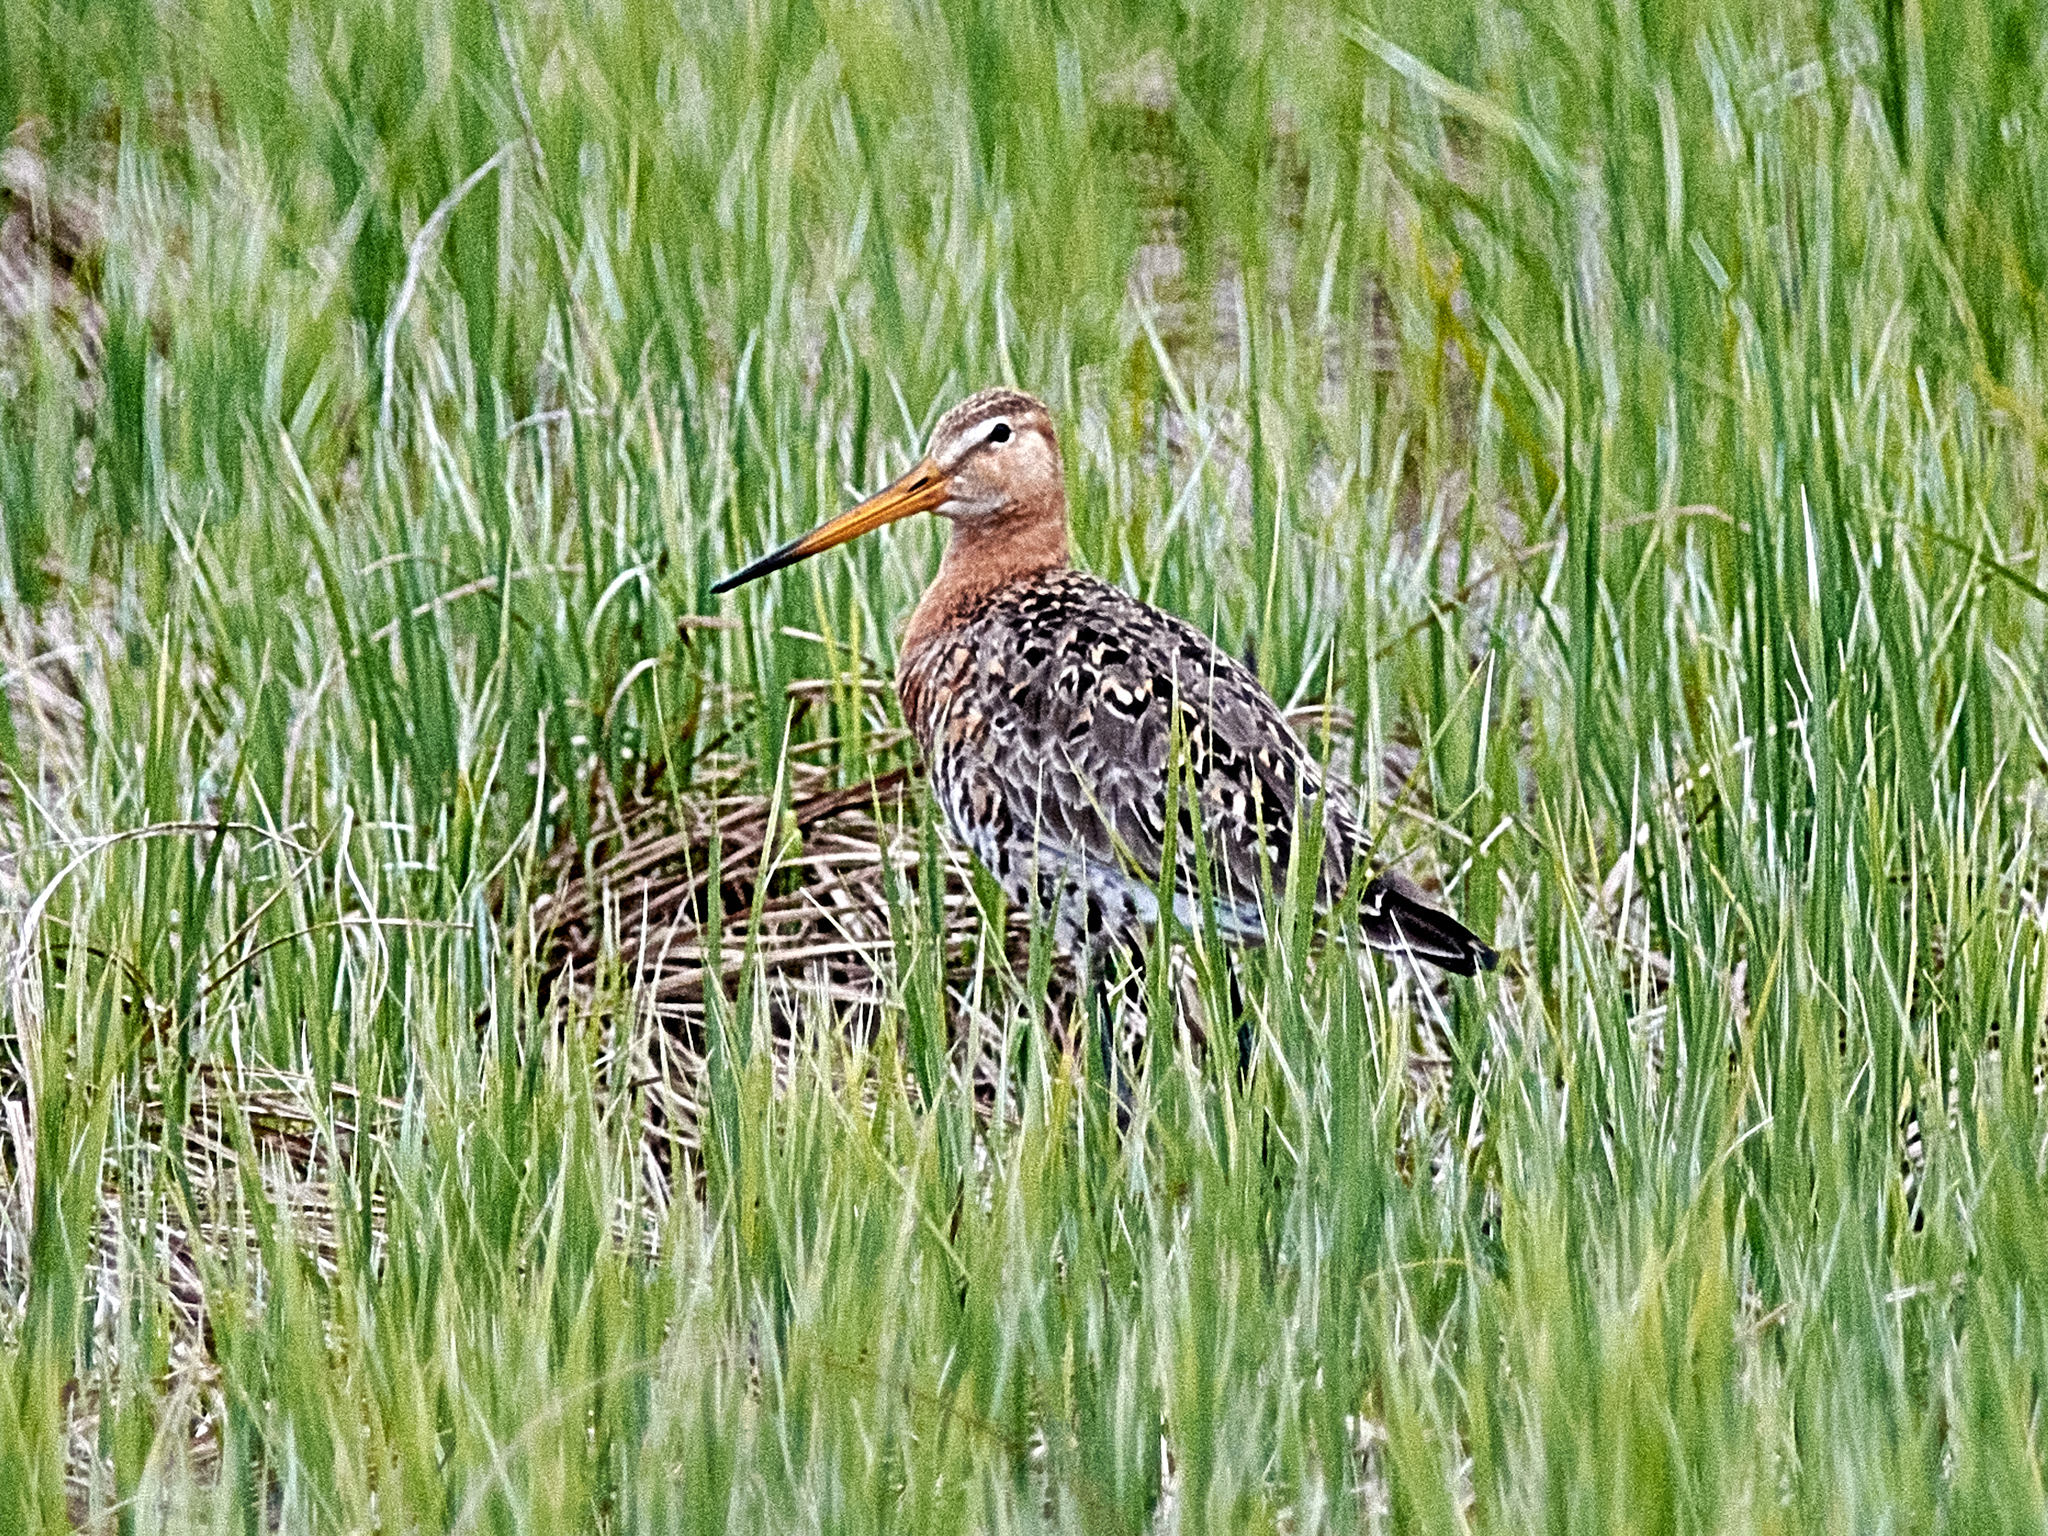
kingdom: Animalia
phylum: Chordata
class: Aves
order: Charadriiformes
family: Scolopacidae
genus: Limosa
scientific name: Limosa limosa
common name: Black-tailed godwit
